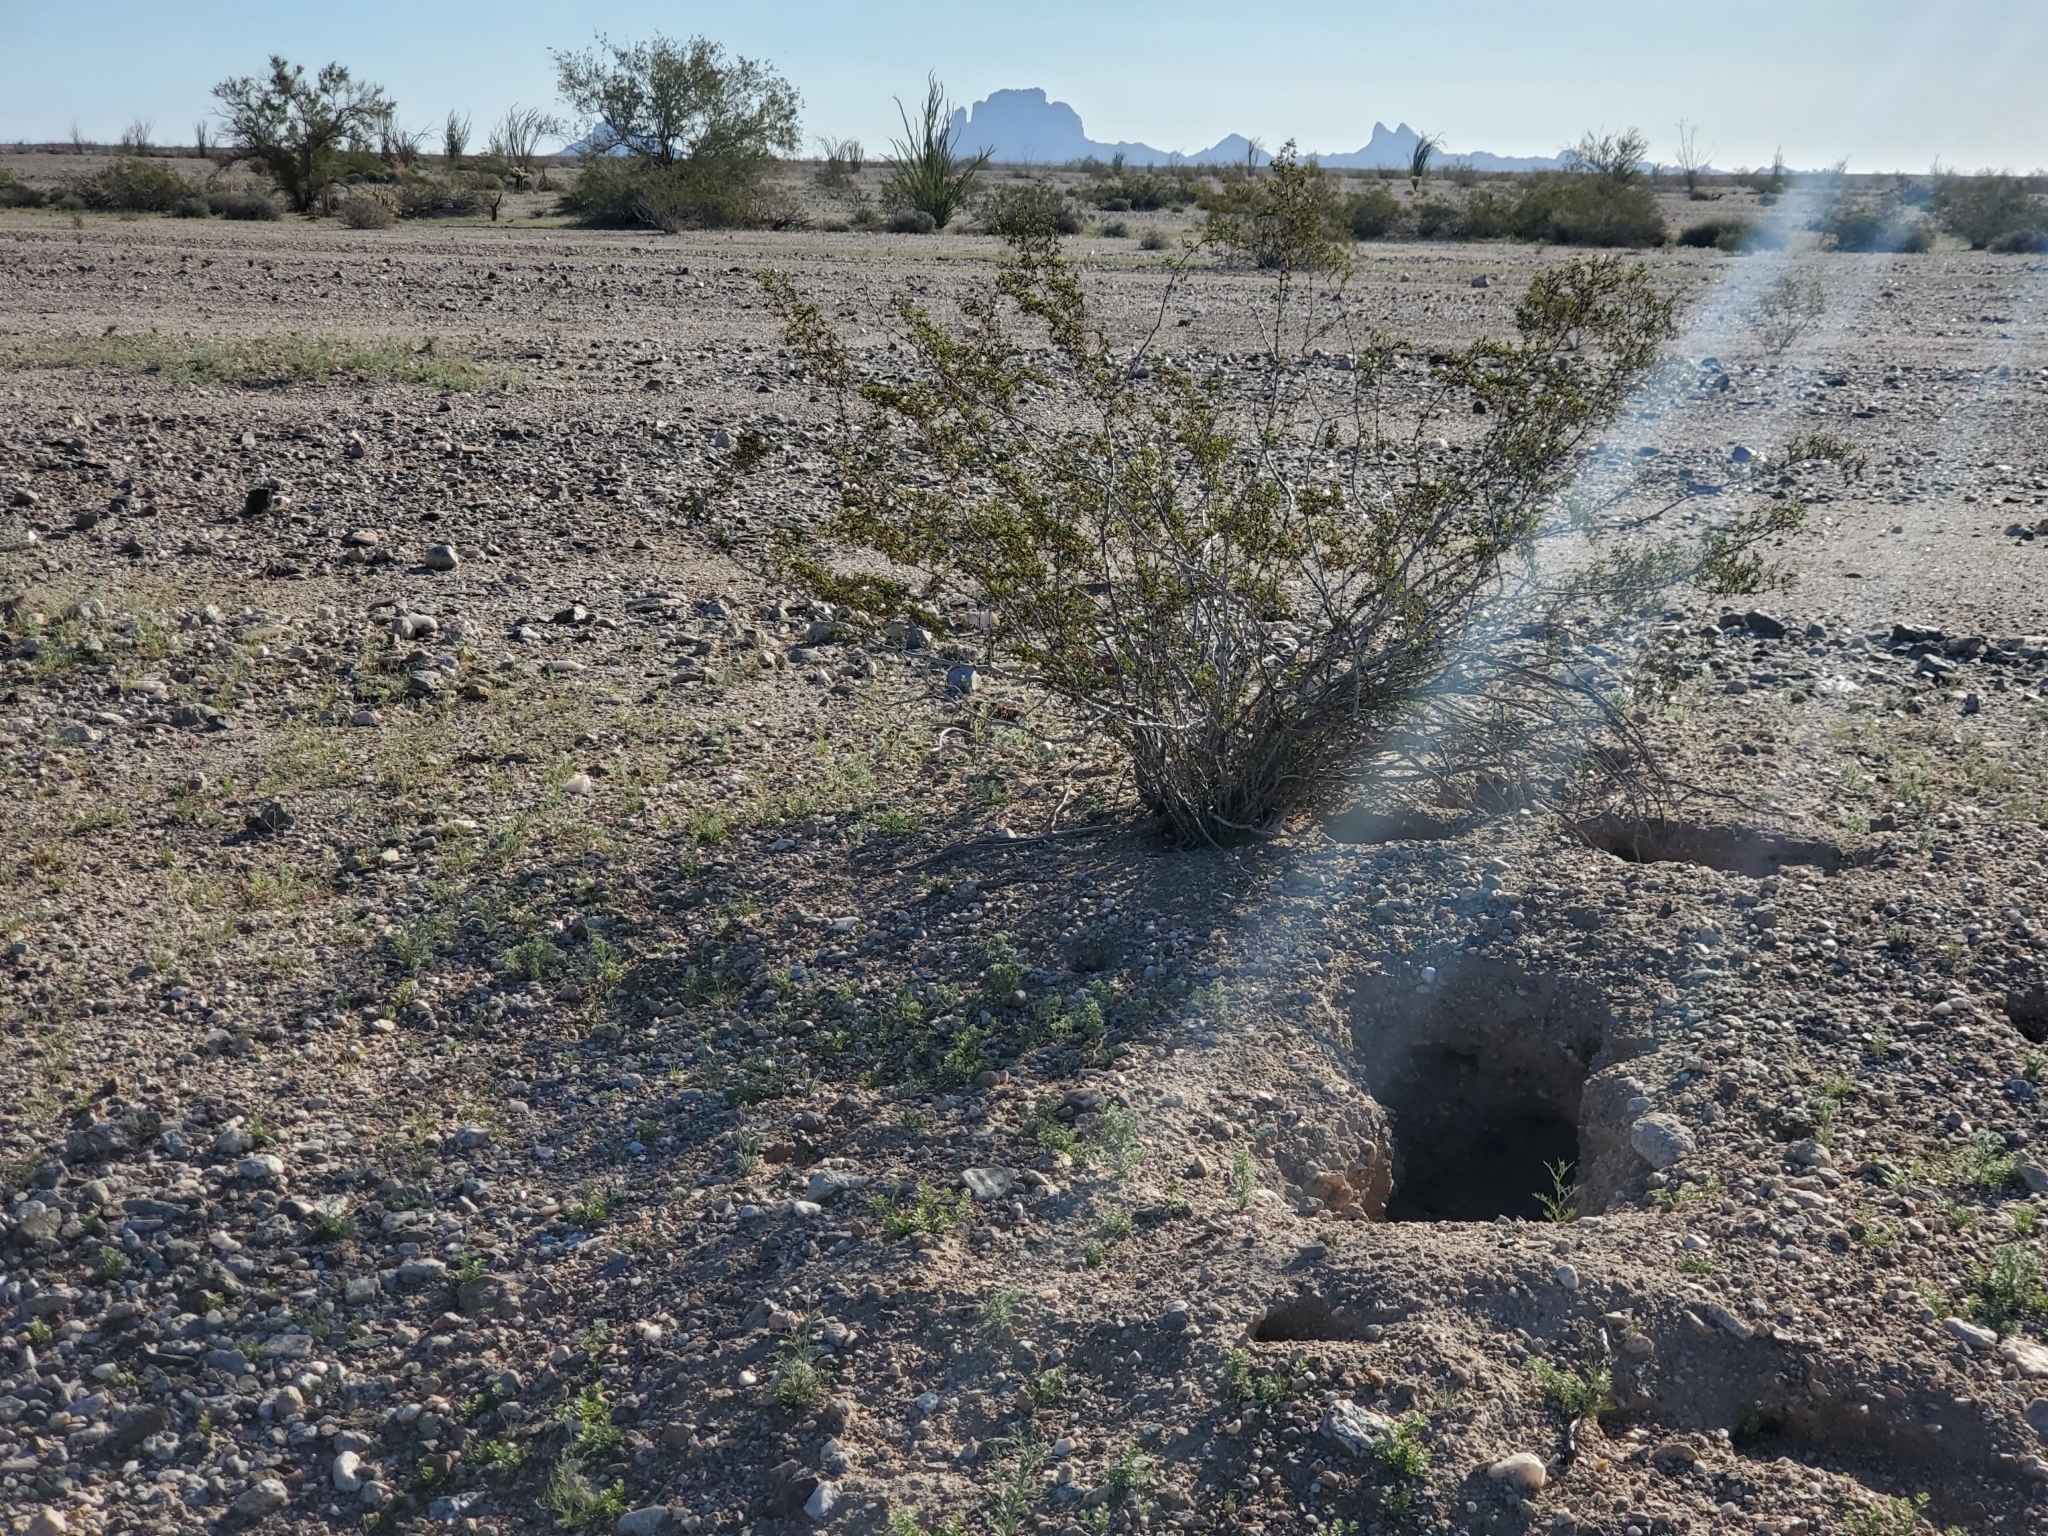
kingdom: Plantae
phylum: Tracheophyta
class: Magnoliopsida
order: Zygophyllales
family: Zygophyllaceae
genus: Larrea
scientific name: Larrea tridentata
